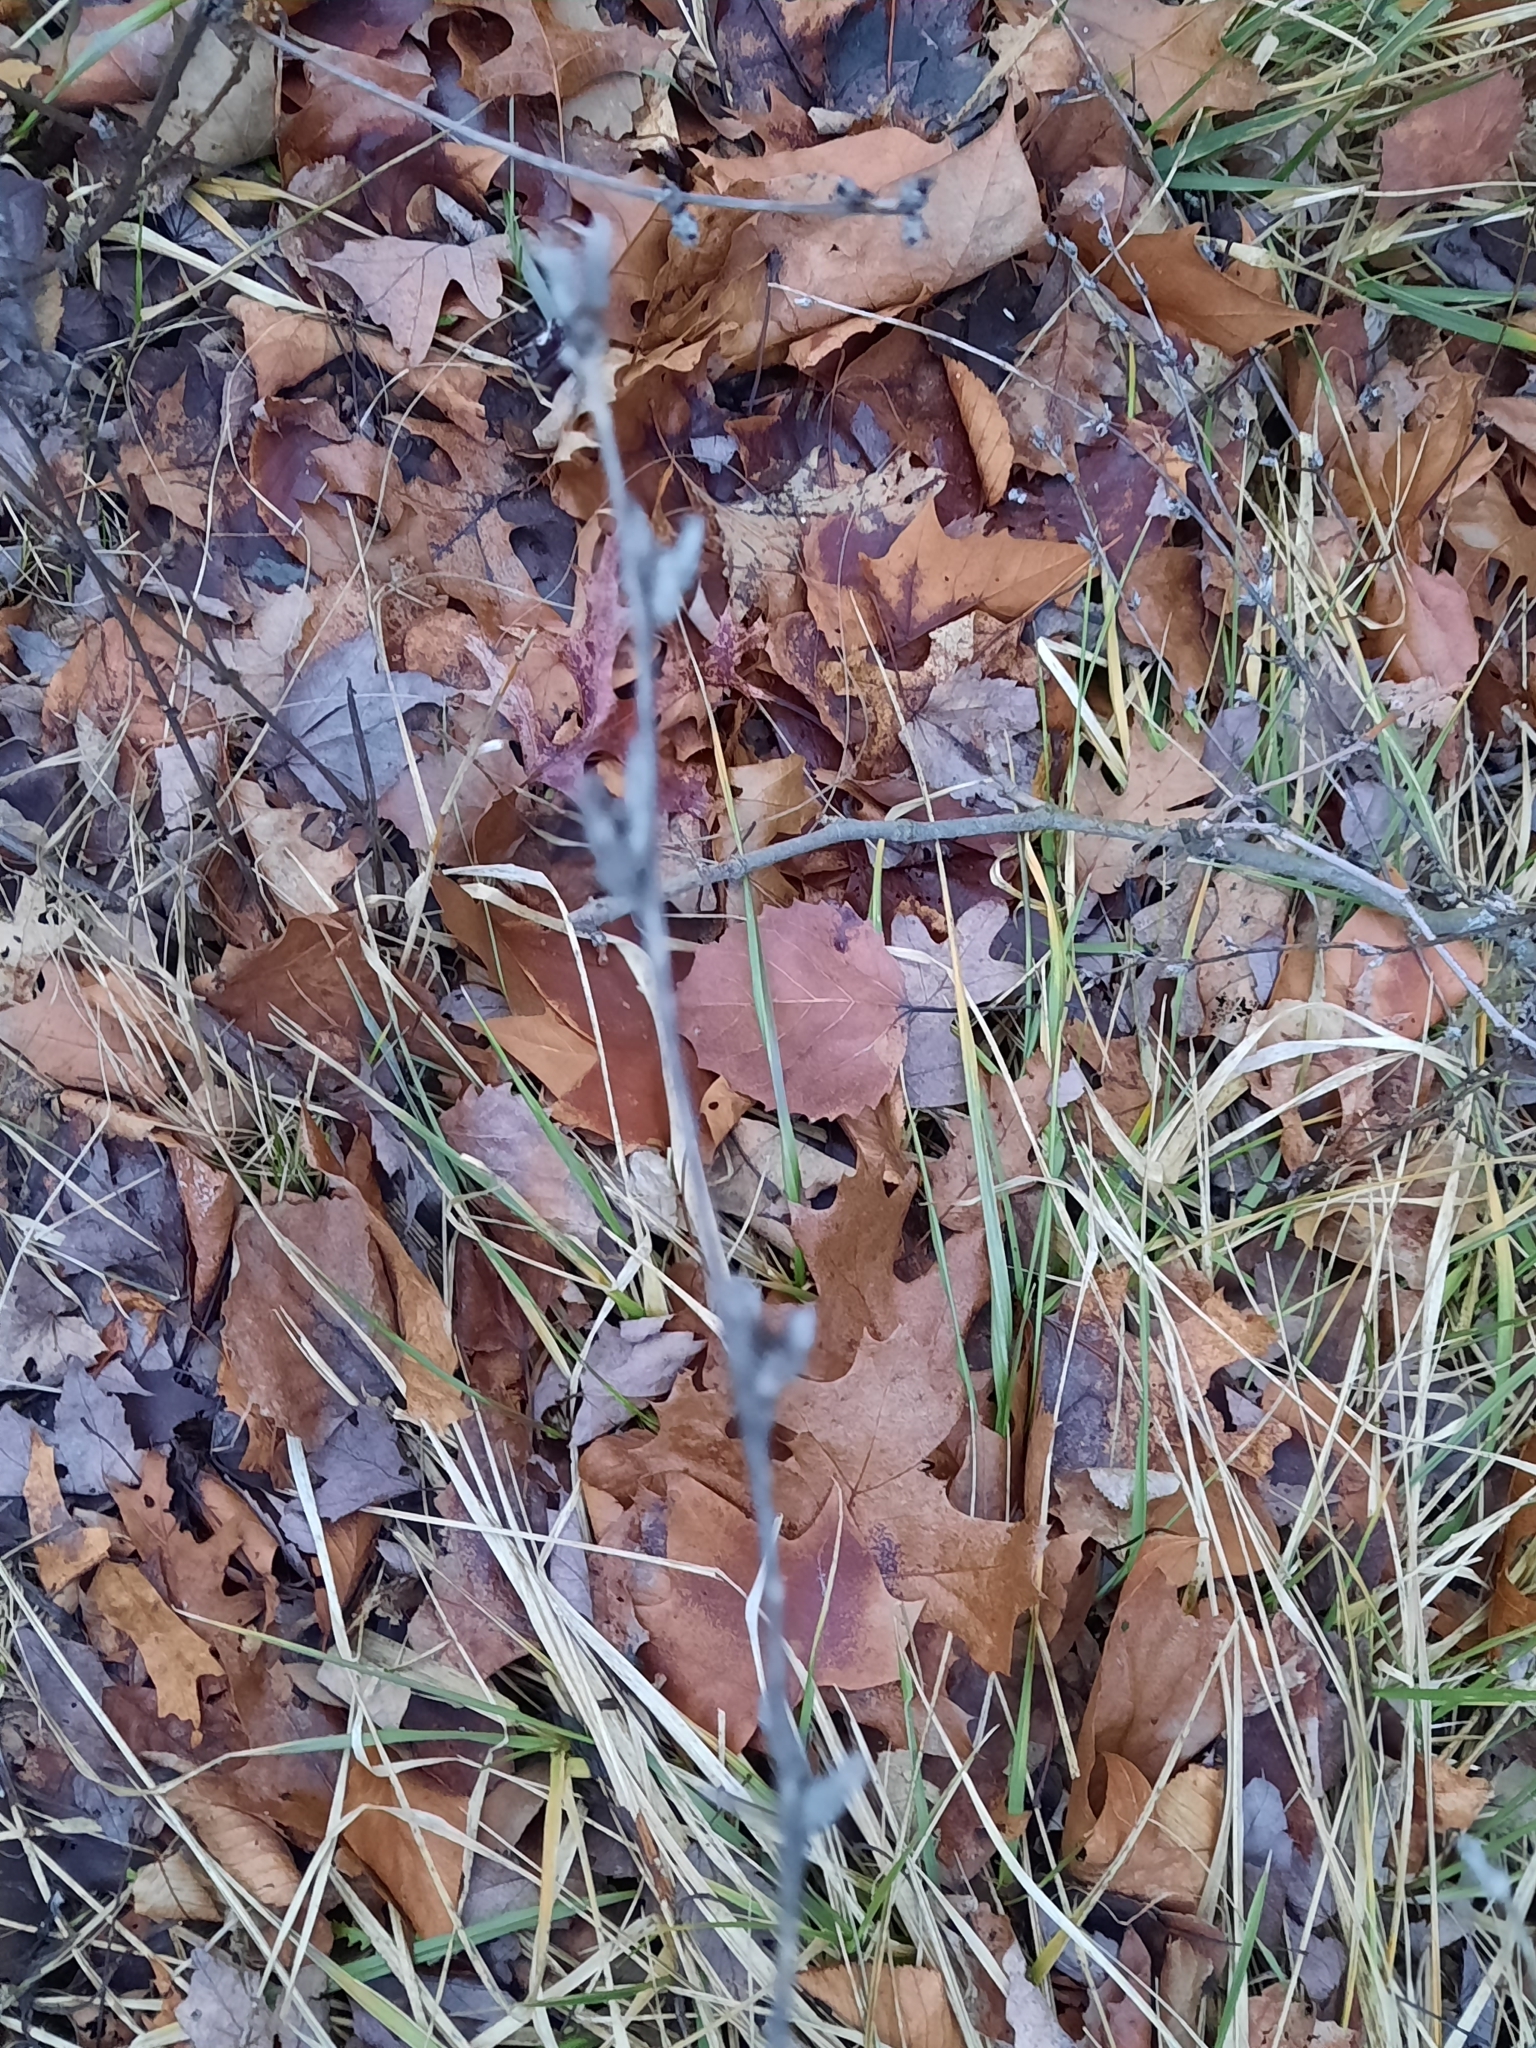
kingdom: Plantae
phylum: Tracheophyta
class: Magnoliopsida
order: Asterales
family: Asteraceae
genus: Cichorium
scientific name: Cichorium intybus
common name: Chicory
